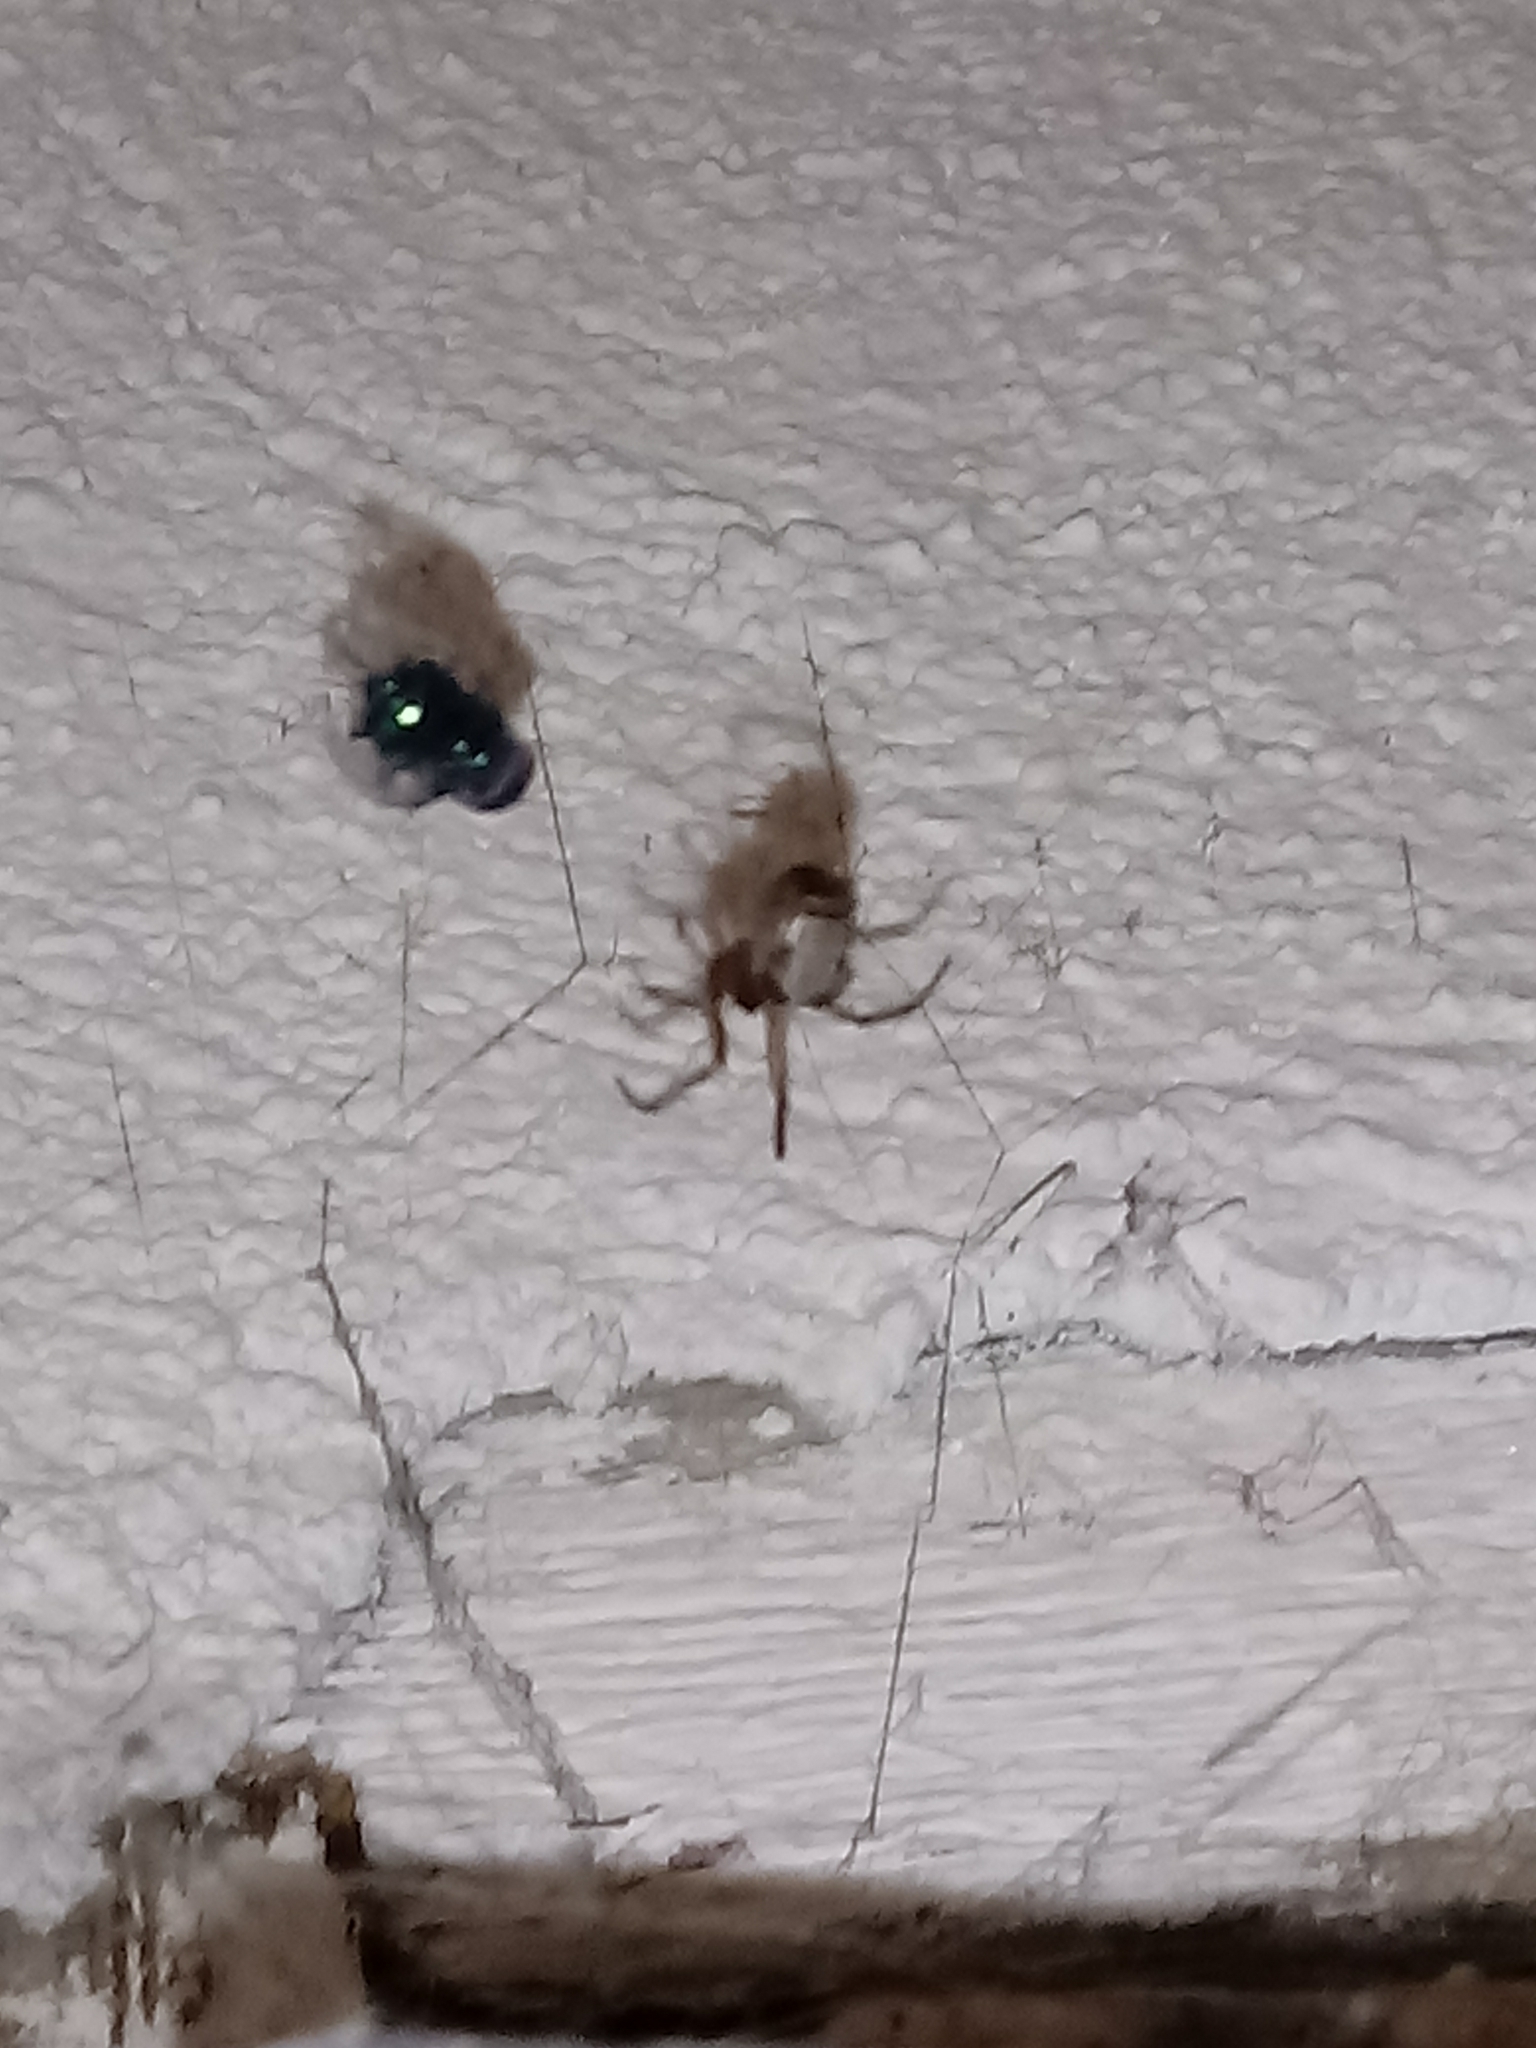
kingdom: Animalia
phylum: Arthropoda
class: Arachnida
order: Araneae
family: Theridiidae
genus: Steatoda
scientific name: Steatoda nobilis
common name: Cobweb weaver
